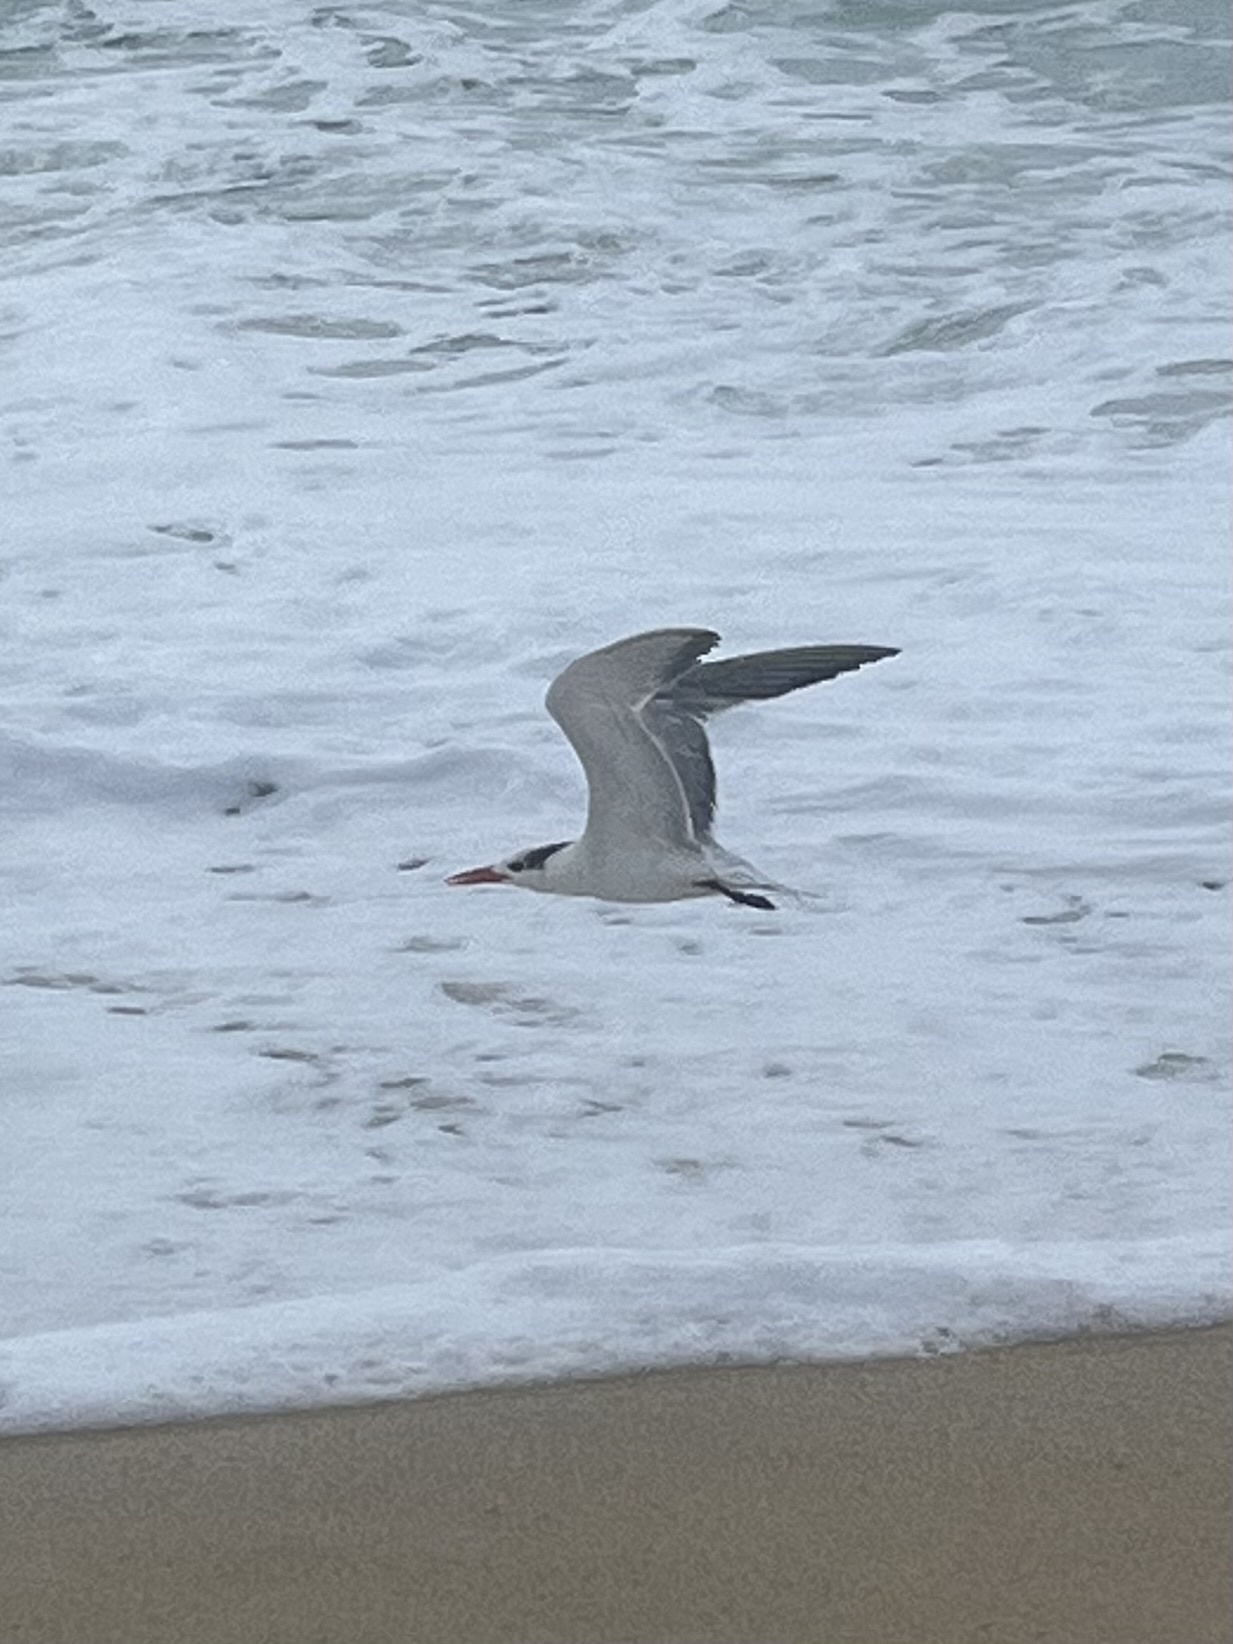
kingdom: Animalia
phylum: Chordata
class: Aves
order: Charadriiformes
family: Laridae
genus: Thalasseus
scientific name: Thalasseus maximus
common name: Royal tern
